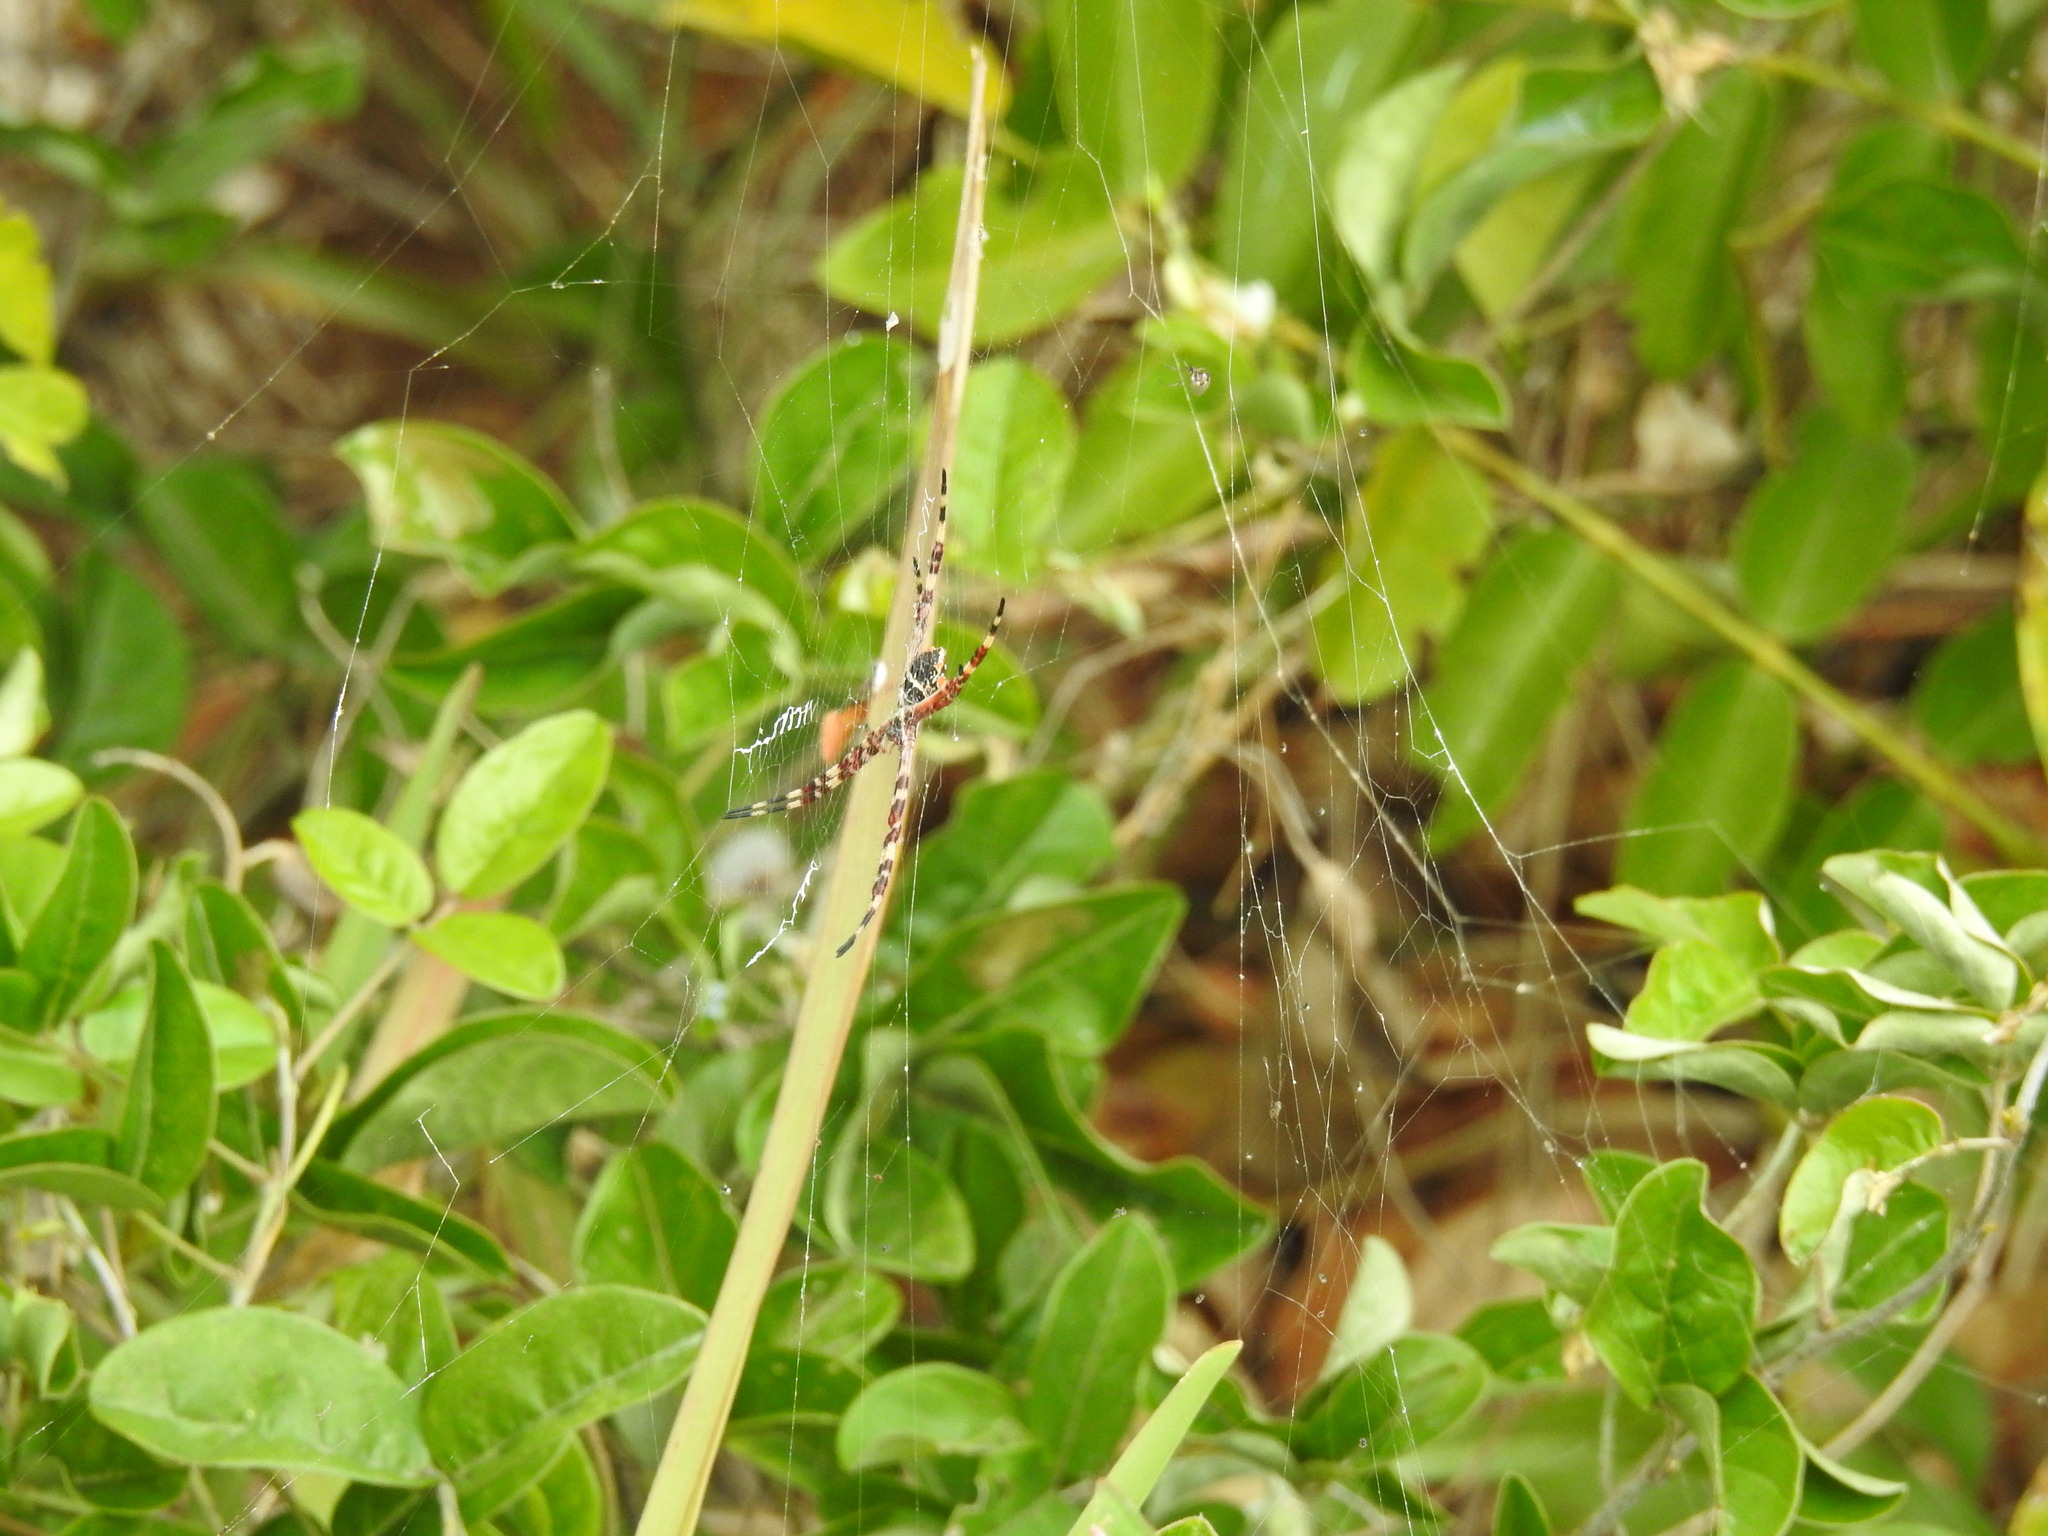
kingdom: Animalia
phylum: Arthropoda
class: Arachnida
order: Araneae
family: Araneidae
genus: Argiope
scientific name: Argiope argentata
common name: Orb weavers
